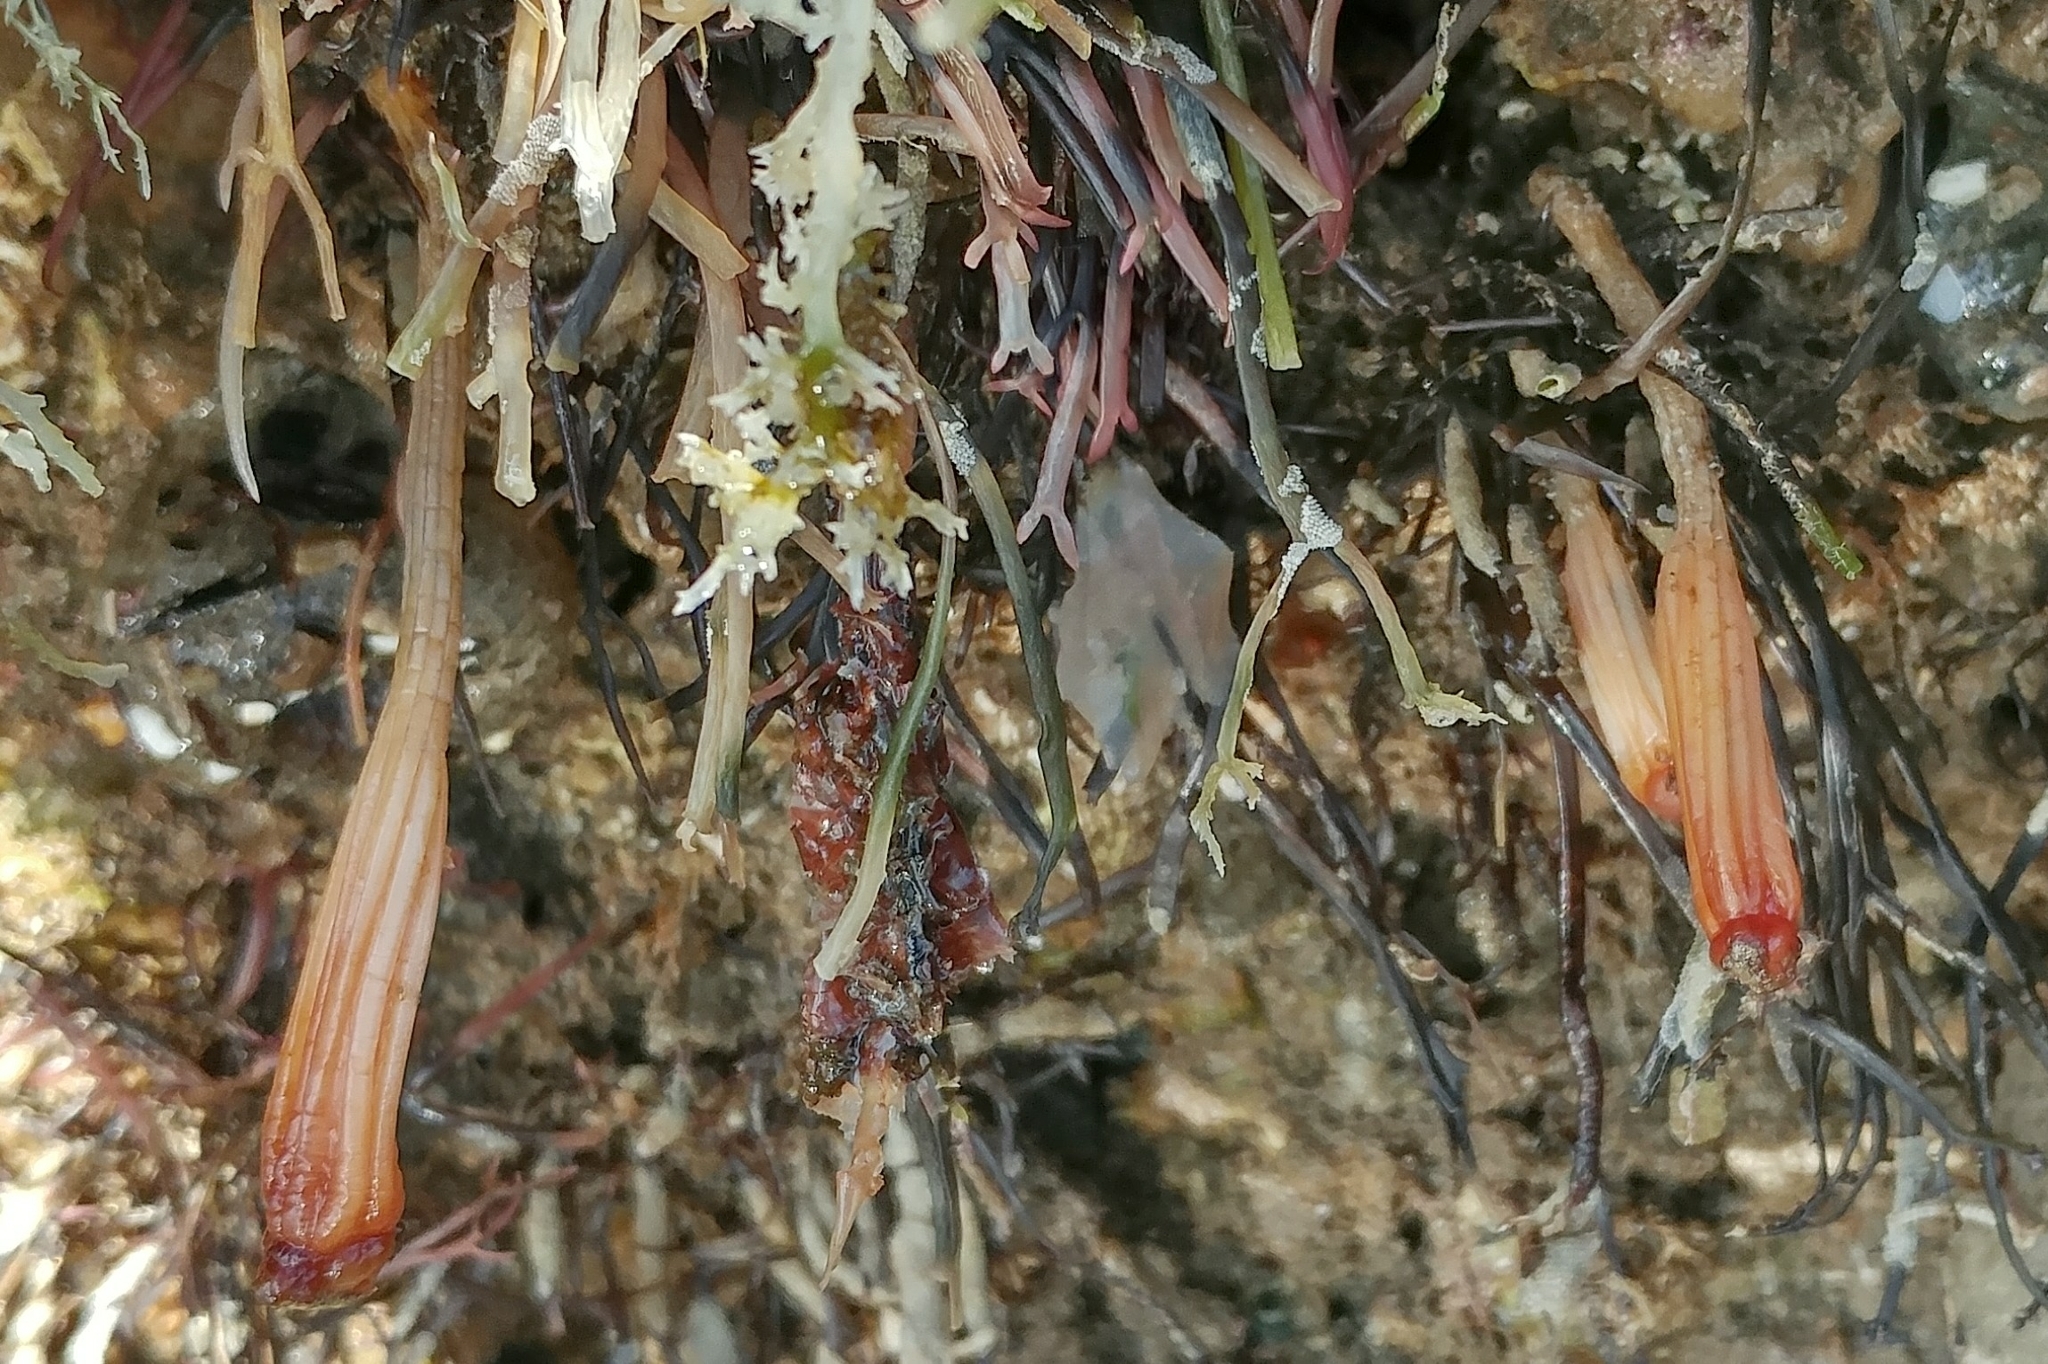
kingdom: Animalia
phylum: Chordata
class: Ascidiacea
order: Stolidobranchia
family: Styelidae
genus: Styela
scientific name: Styela montereyensis
